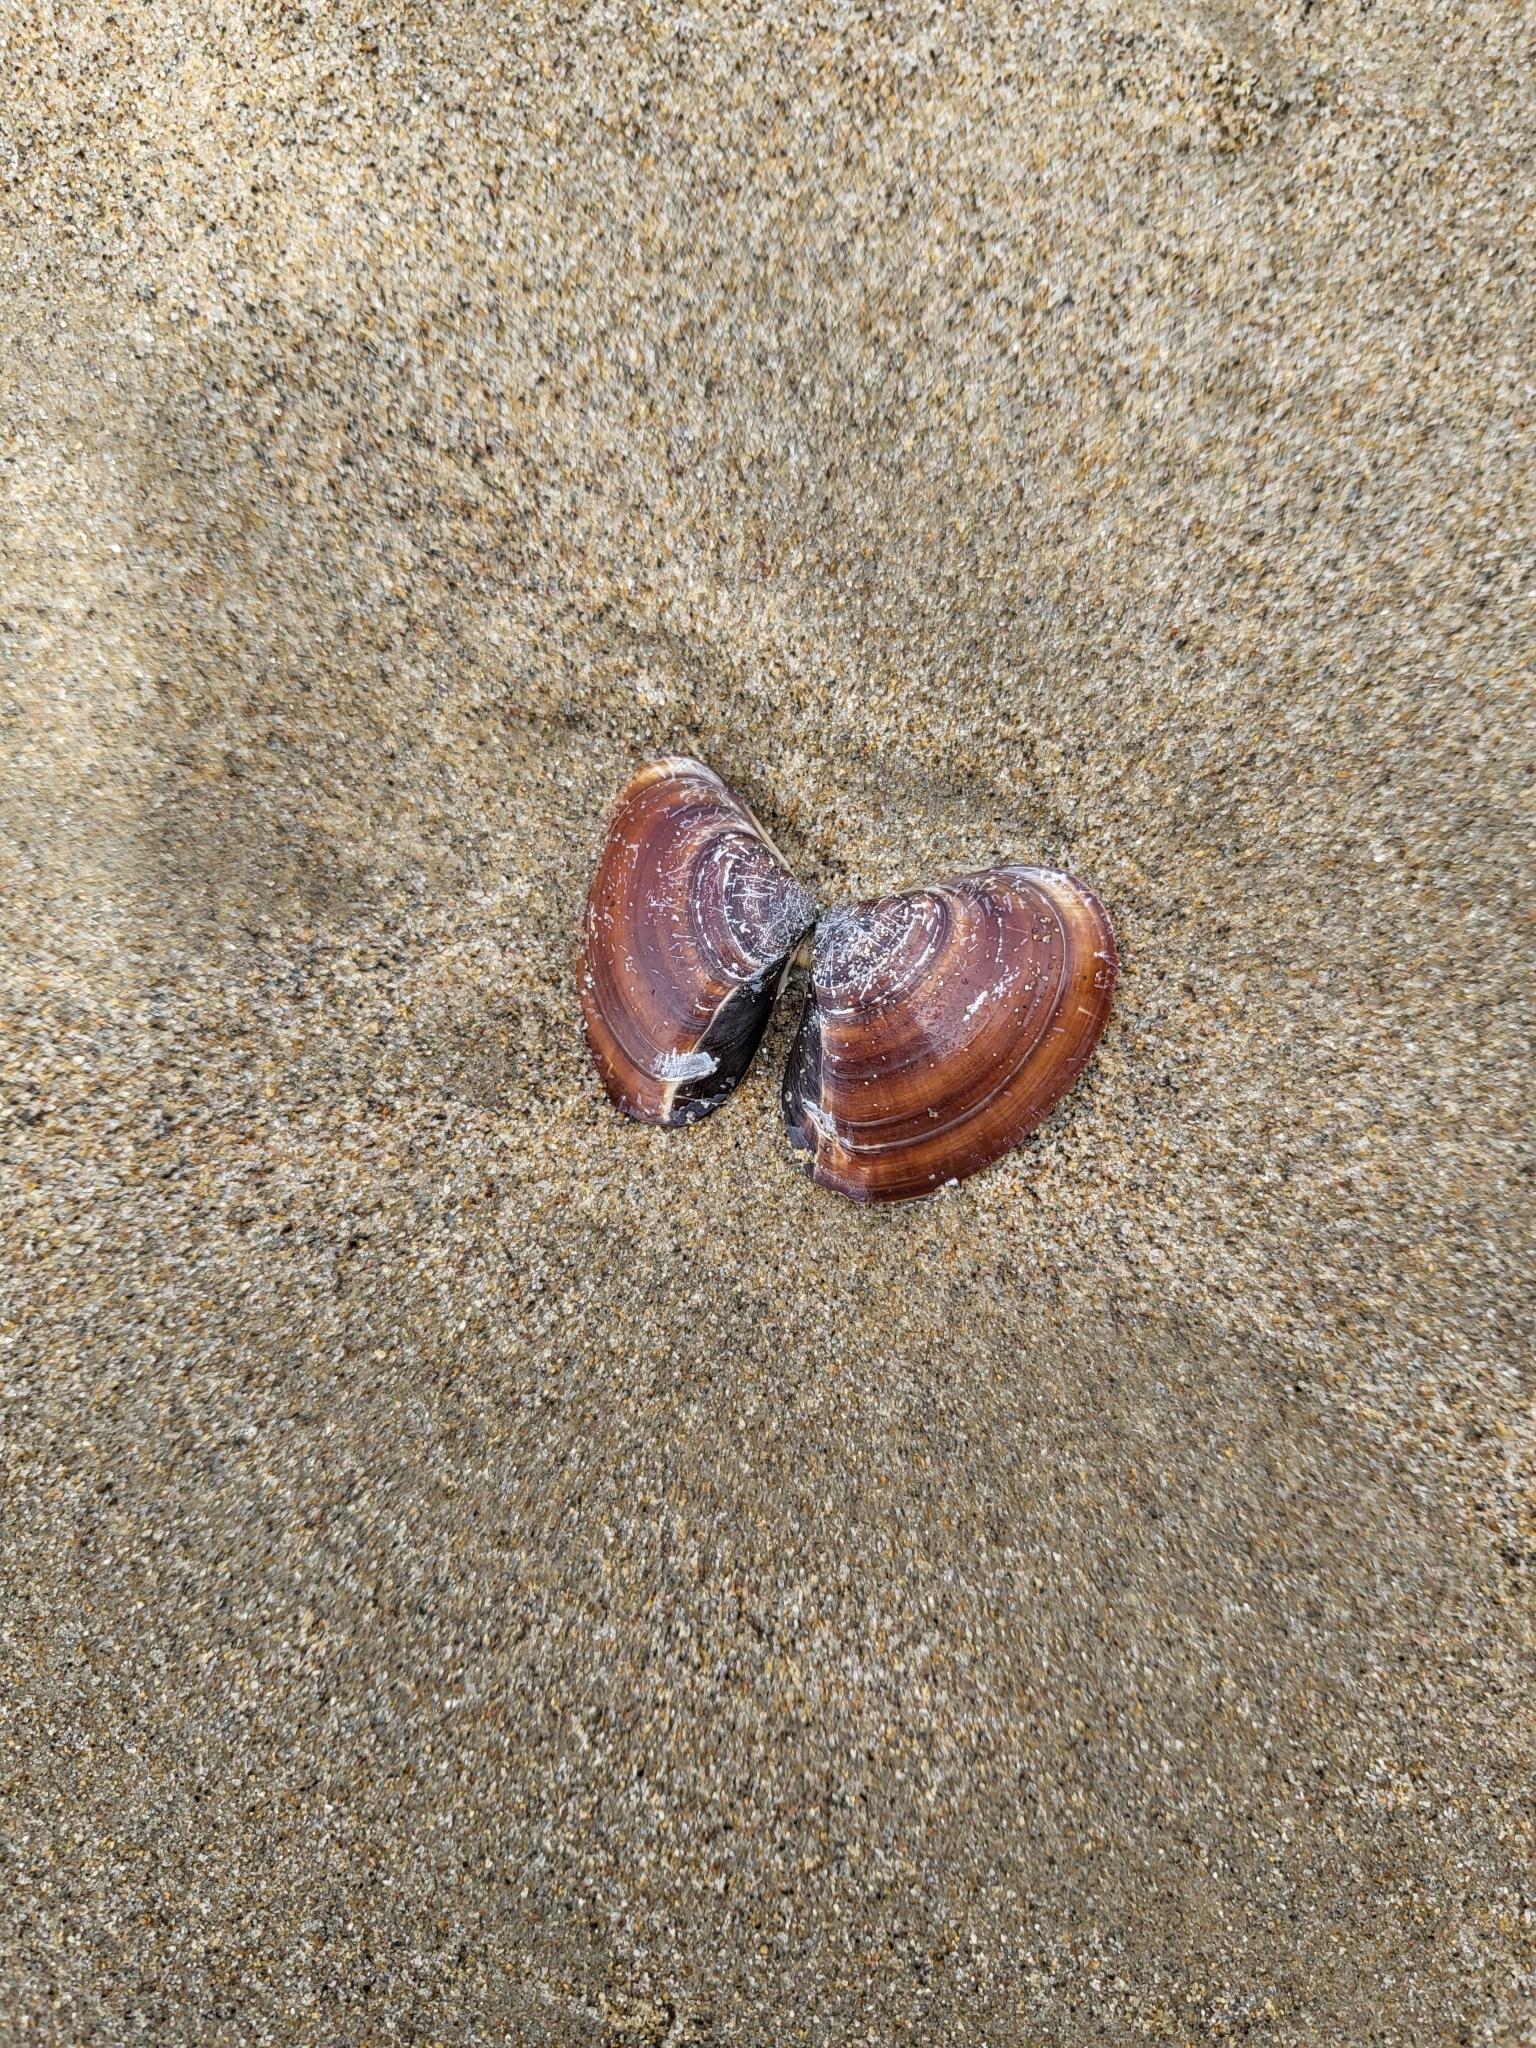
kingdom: Animalia
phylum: Mollusca
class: Bivalvia
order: Venerida
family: Veneridae
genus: Tivela
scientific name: Tivela stultorum
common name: Pismo clam
